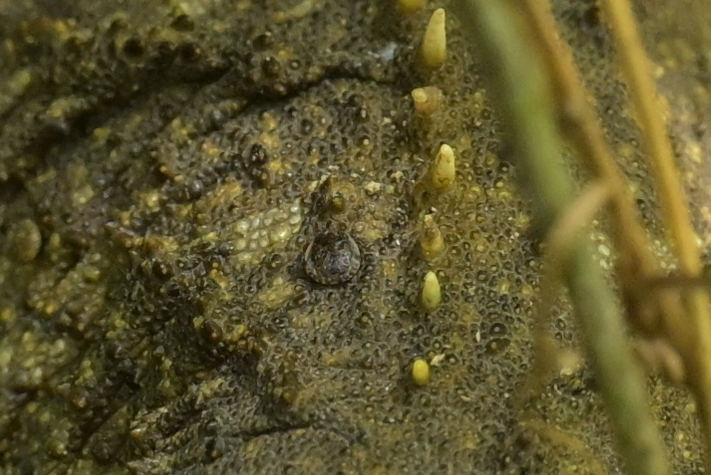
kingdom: Animalia
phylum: Arthropoda
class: Arachnida
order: Ixodida
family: Ixodidae
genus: Archaeocroton
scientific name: Archaeocroton sphenodonti
